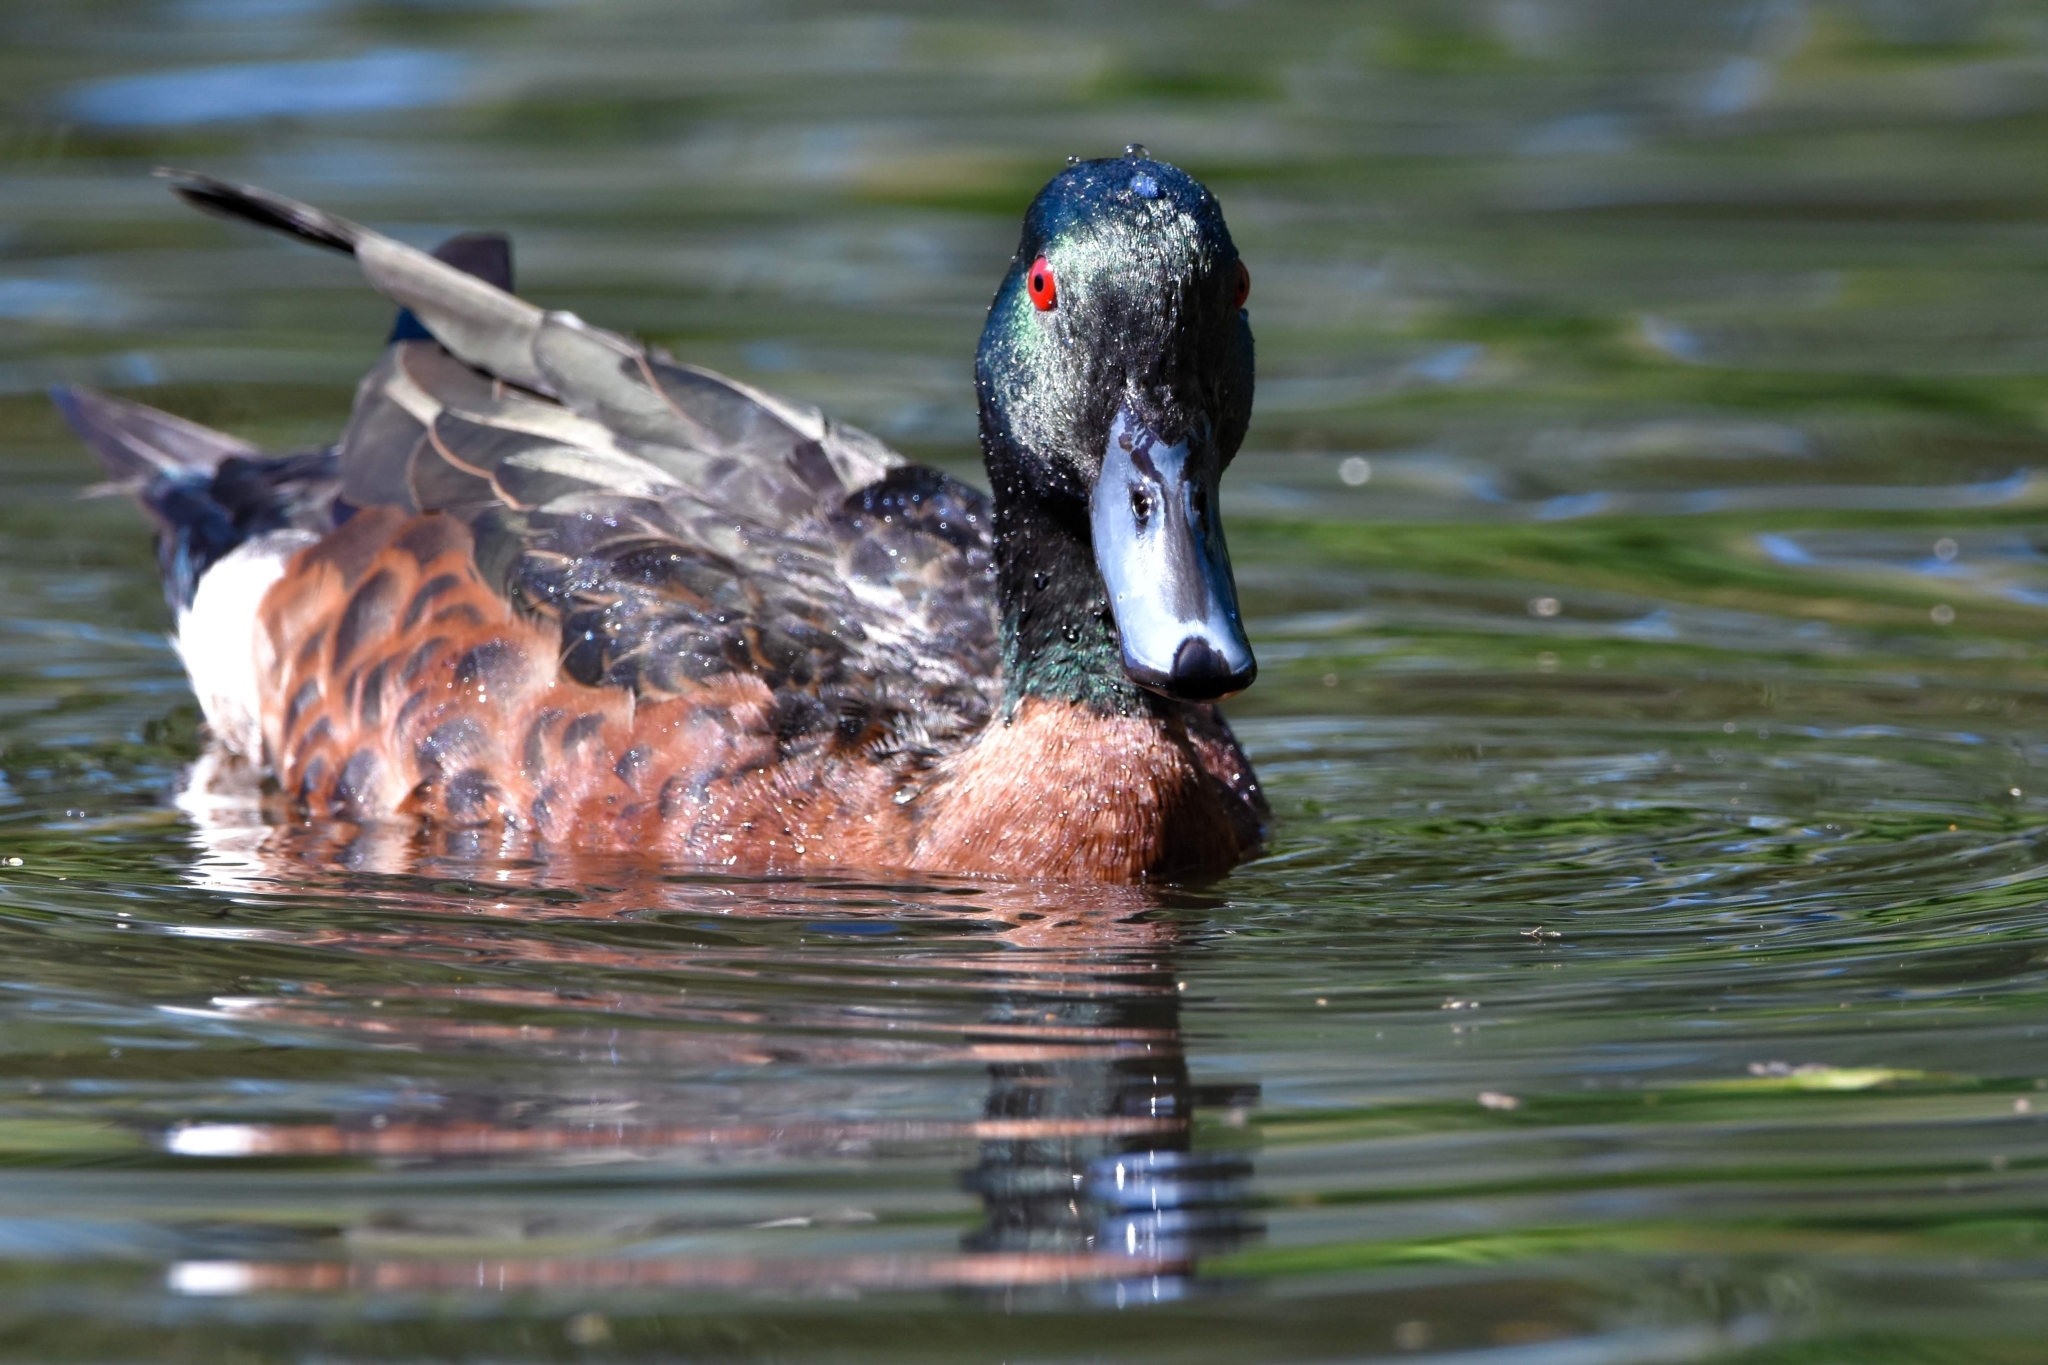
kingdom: Animalia
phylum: Chordata
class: Aves
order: Anseriformes
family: Anatidae
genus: Anas
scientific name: Anas castanea
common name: Chestnut teal
